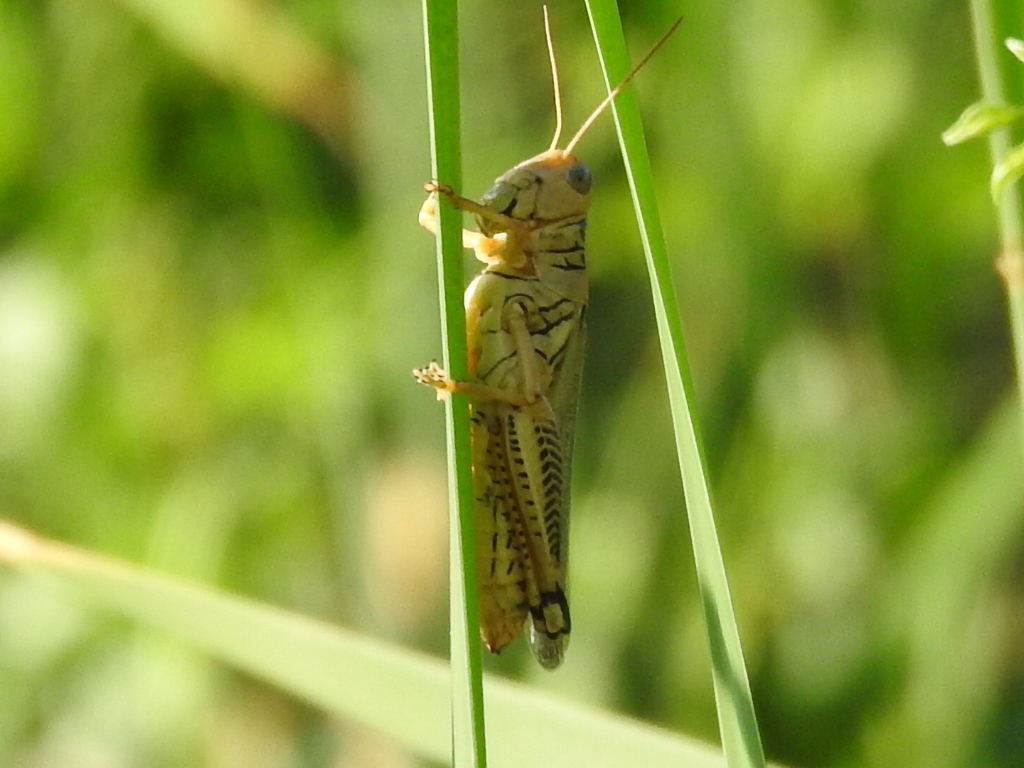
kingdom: Animalia
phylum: Arthropoda
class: Insecta
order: Orthoptera
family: Acrididae
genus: Melanoplus
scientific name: Melanoplus differentialis
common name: Differential grasshopper
